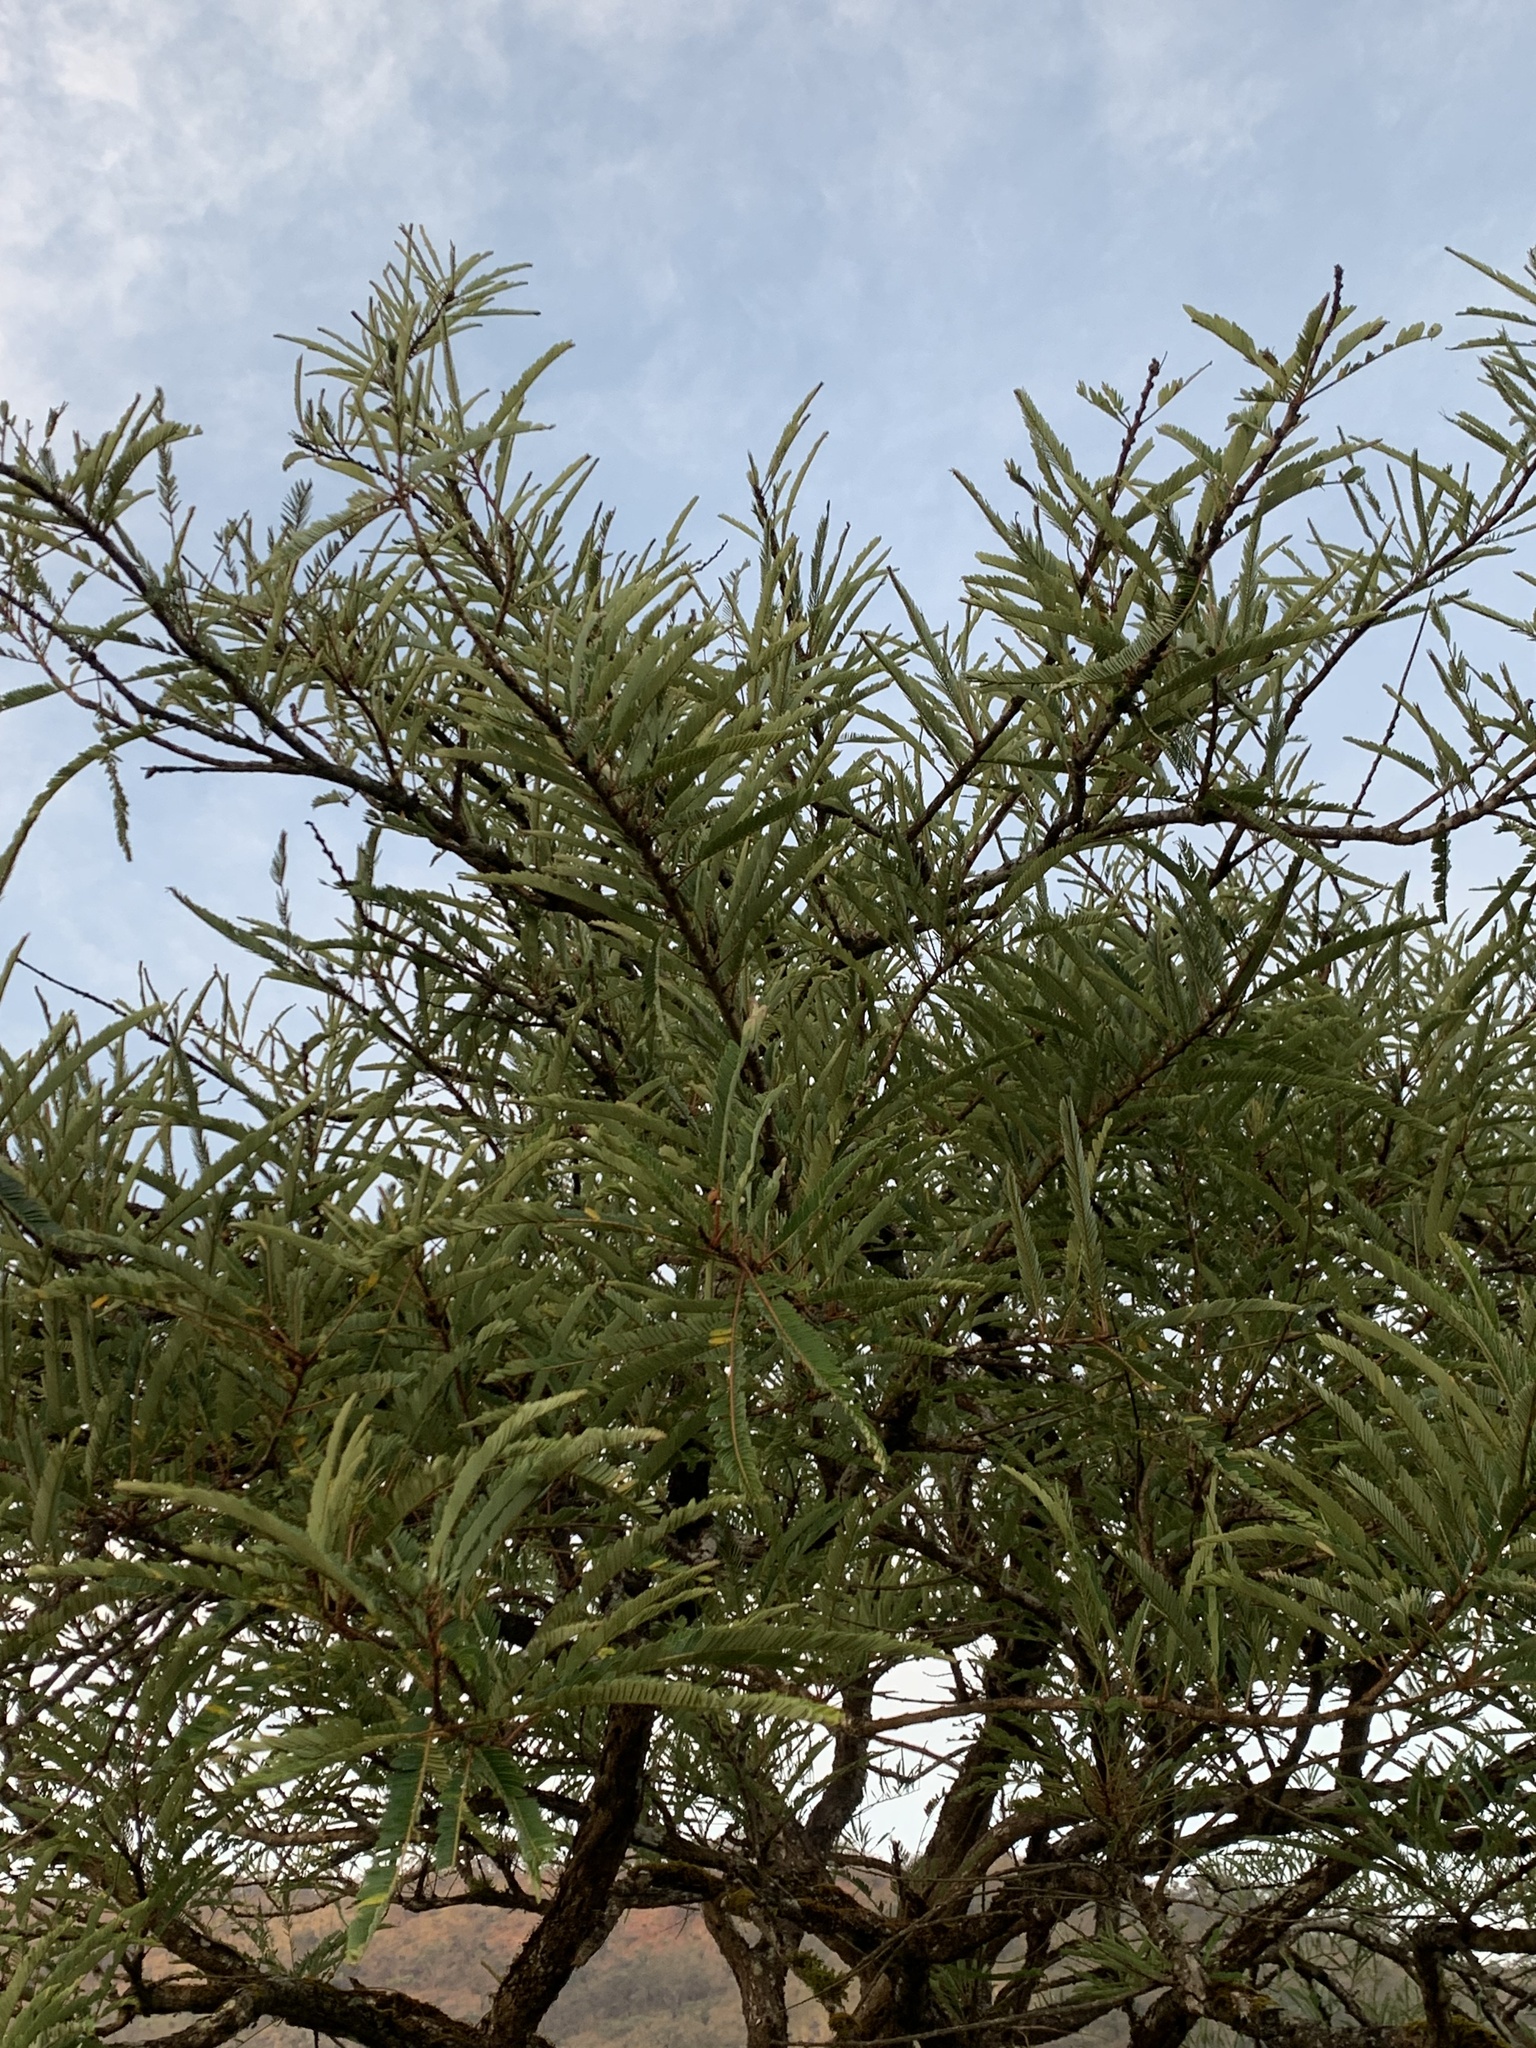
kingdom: Plantae
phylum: Tracheophyta
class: Magnoliopsida
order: Malpighiales
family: Phyllanthaceae
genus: Phyllanthus
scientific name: Phyllanthus emblica
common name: Indian gooseberry
